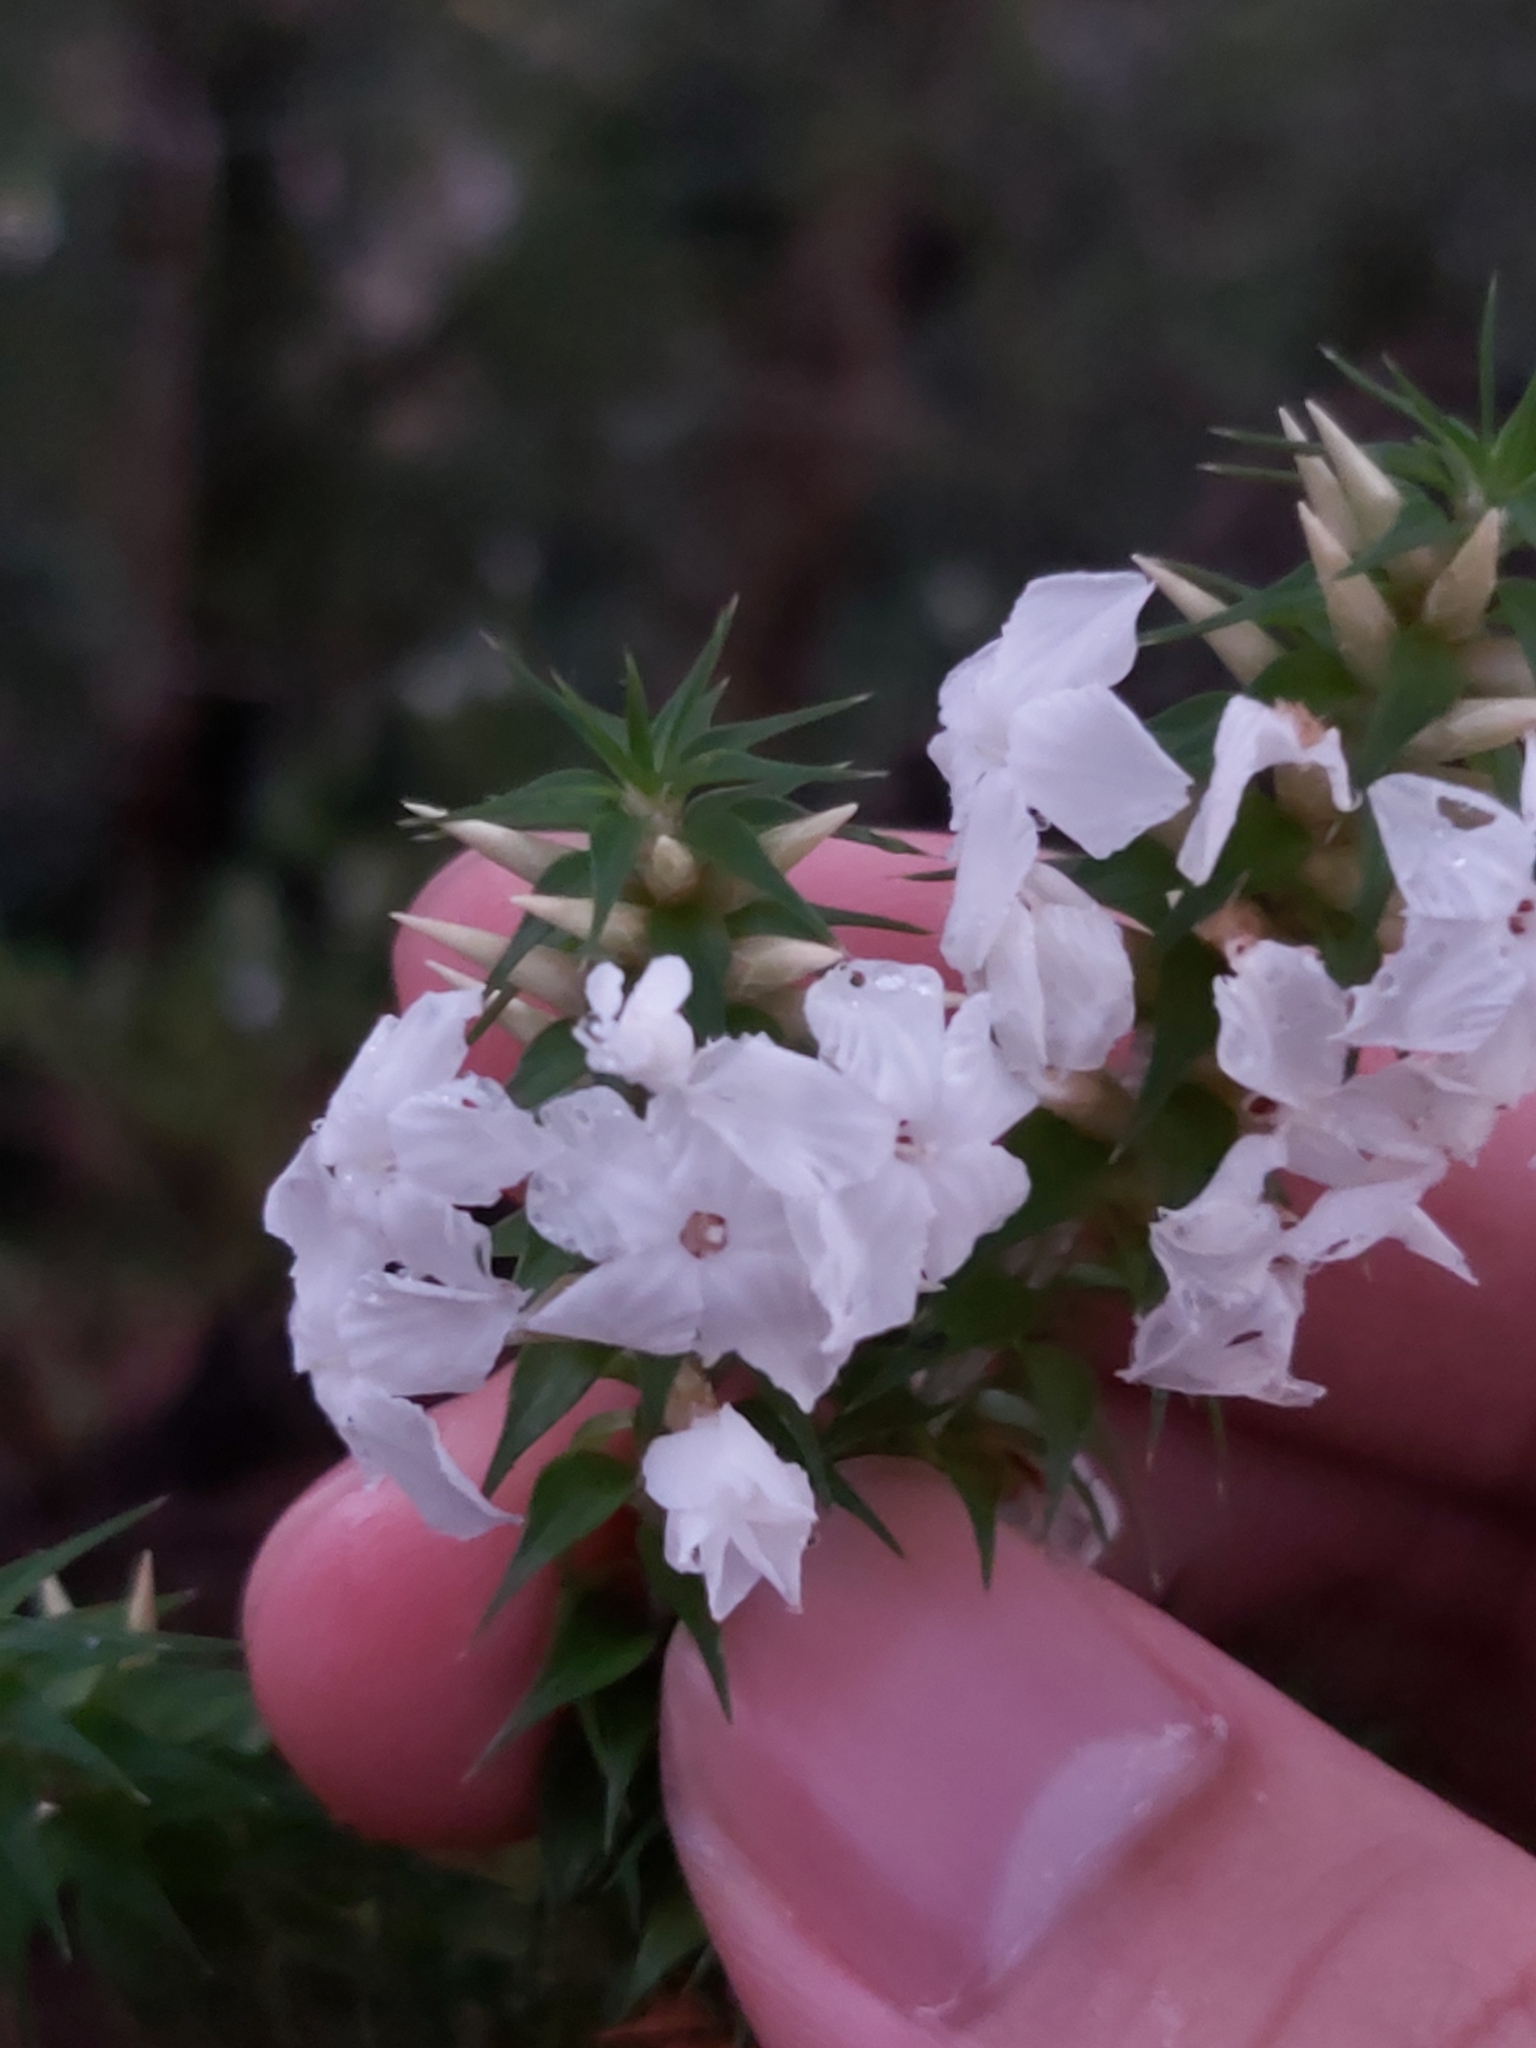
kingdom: Plantae
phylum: Tracheophyta
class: Magnoliopsida
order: Ericales
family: Ericaceae
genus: Woollsia
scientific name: Woollsia pungens
